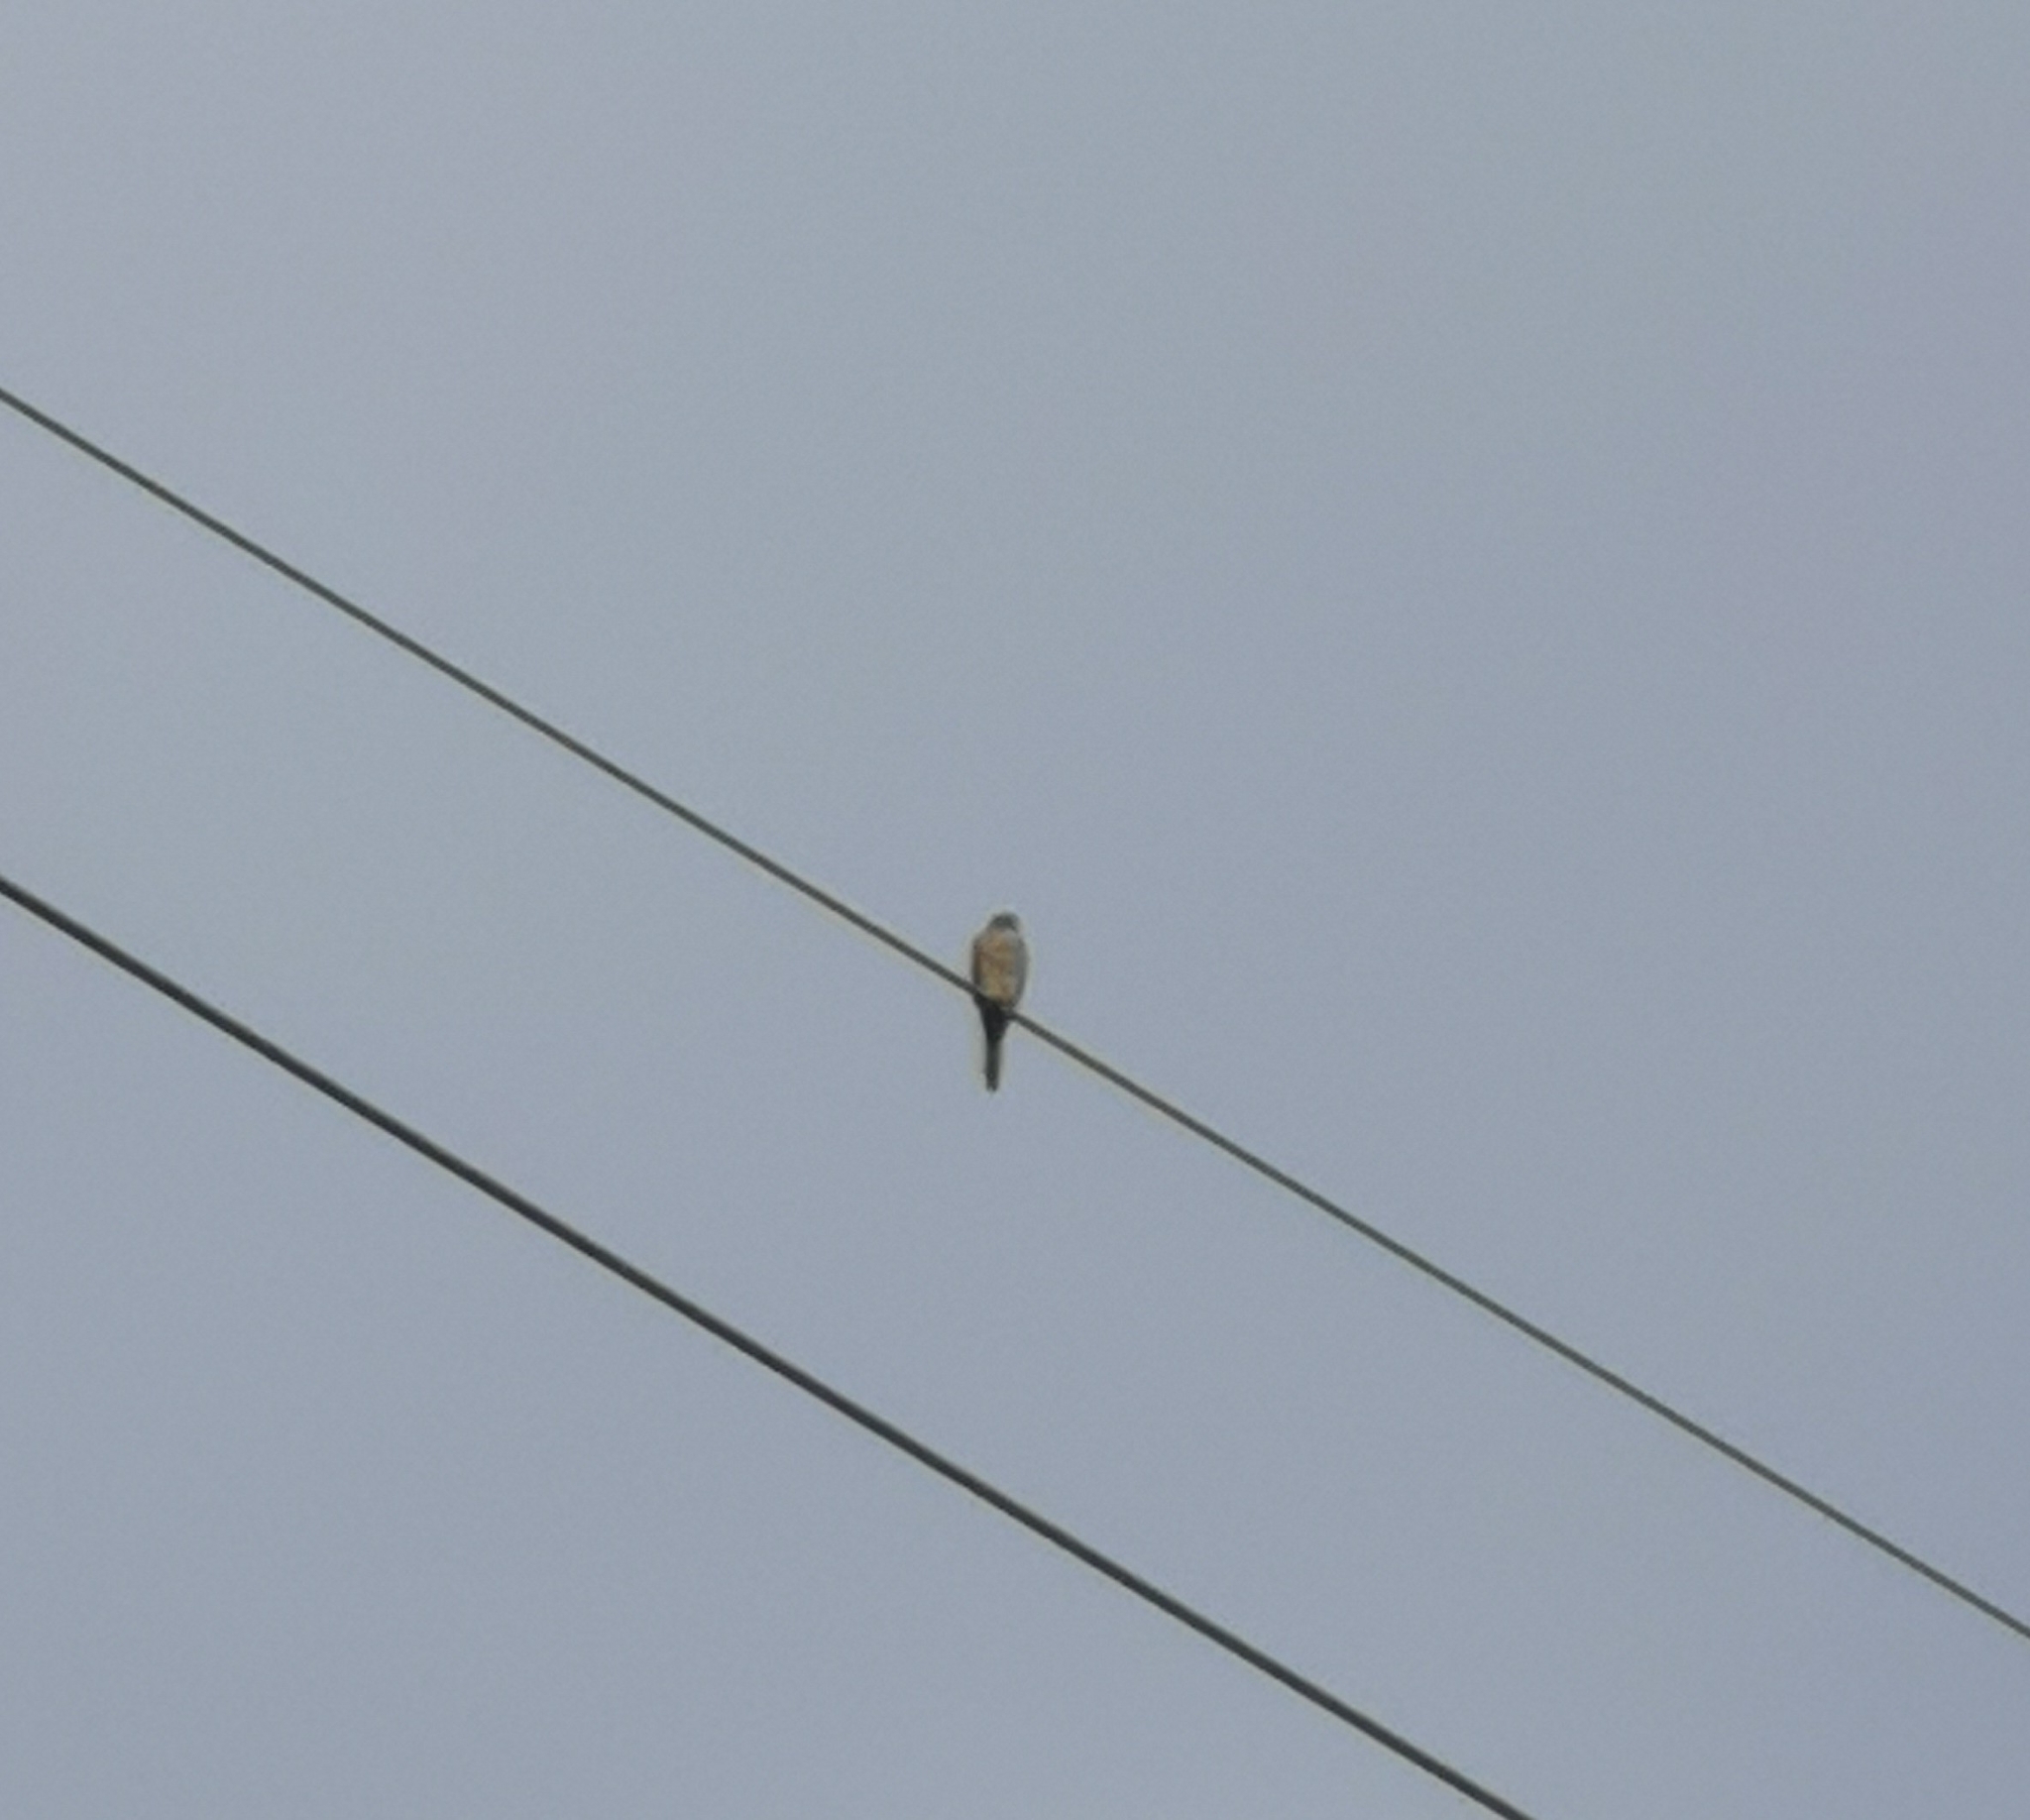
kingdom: Animalia
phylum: Chordata
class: Aves
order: Falconiformes
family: Falconidae
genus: Falco
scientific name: Falco tinnunculus
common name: Common kestrel
